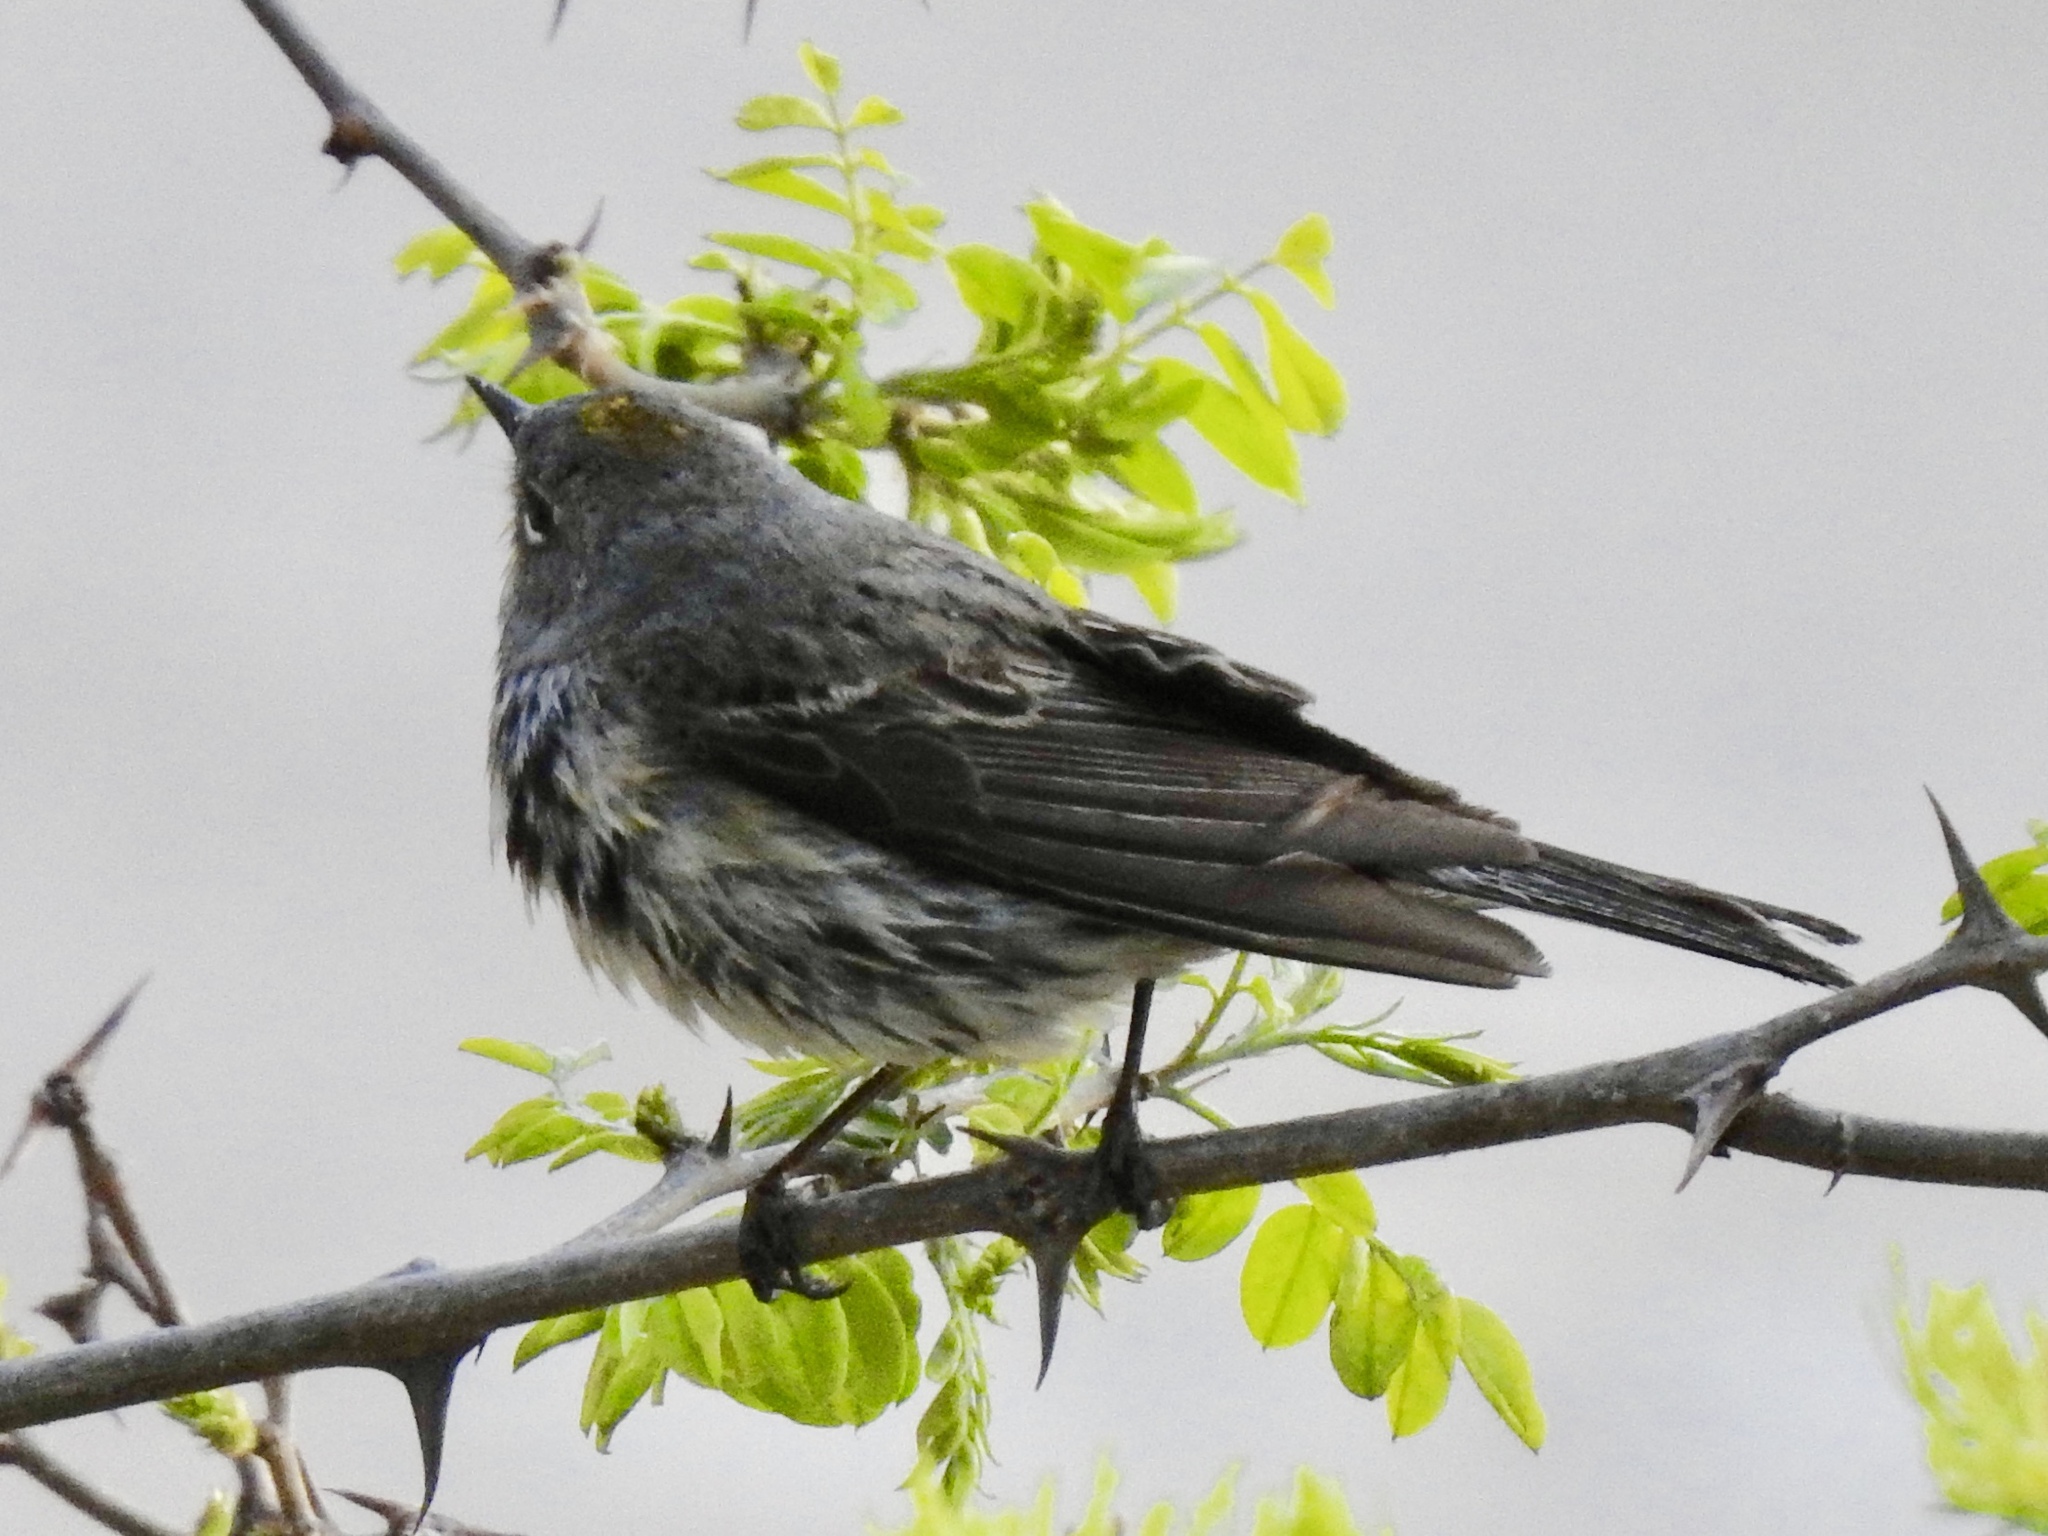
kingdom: Animalia
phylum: Chordata
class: Aves
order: Passeriformes
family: Parulidae
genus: Setophaga
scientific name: Setophaga coronata
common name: Myrtle warbler
